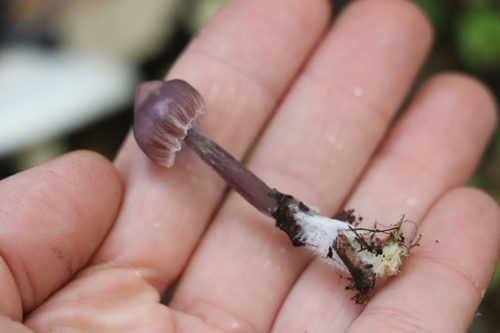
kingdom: Fungi
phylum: Basidiomycota
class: Agaricomycetes
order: Agaricales
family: Mycenaceae
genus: Mycena
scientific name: Mycena pura
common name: Lilac bonnet
